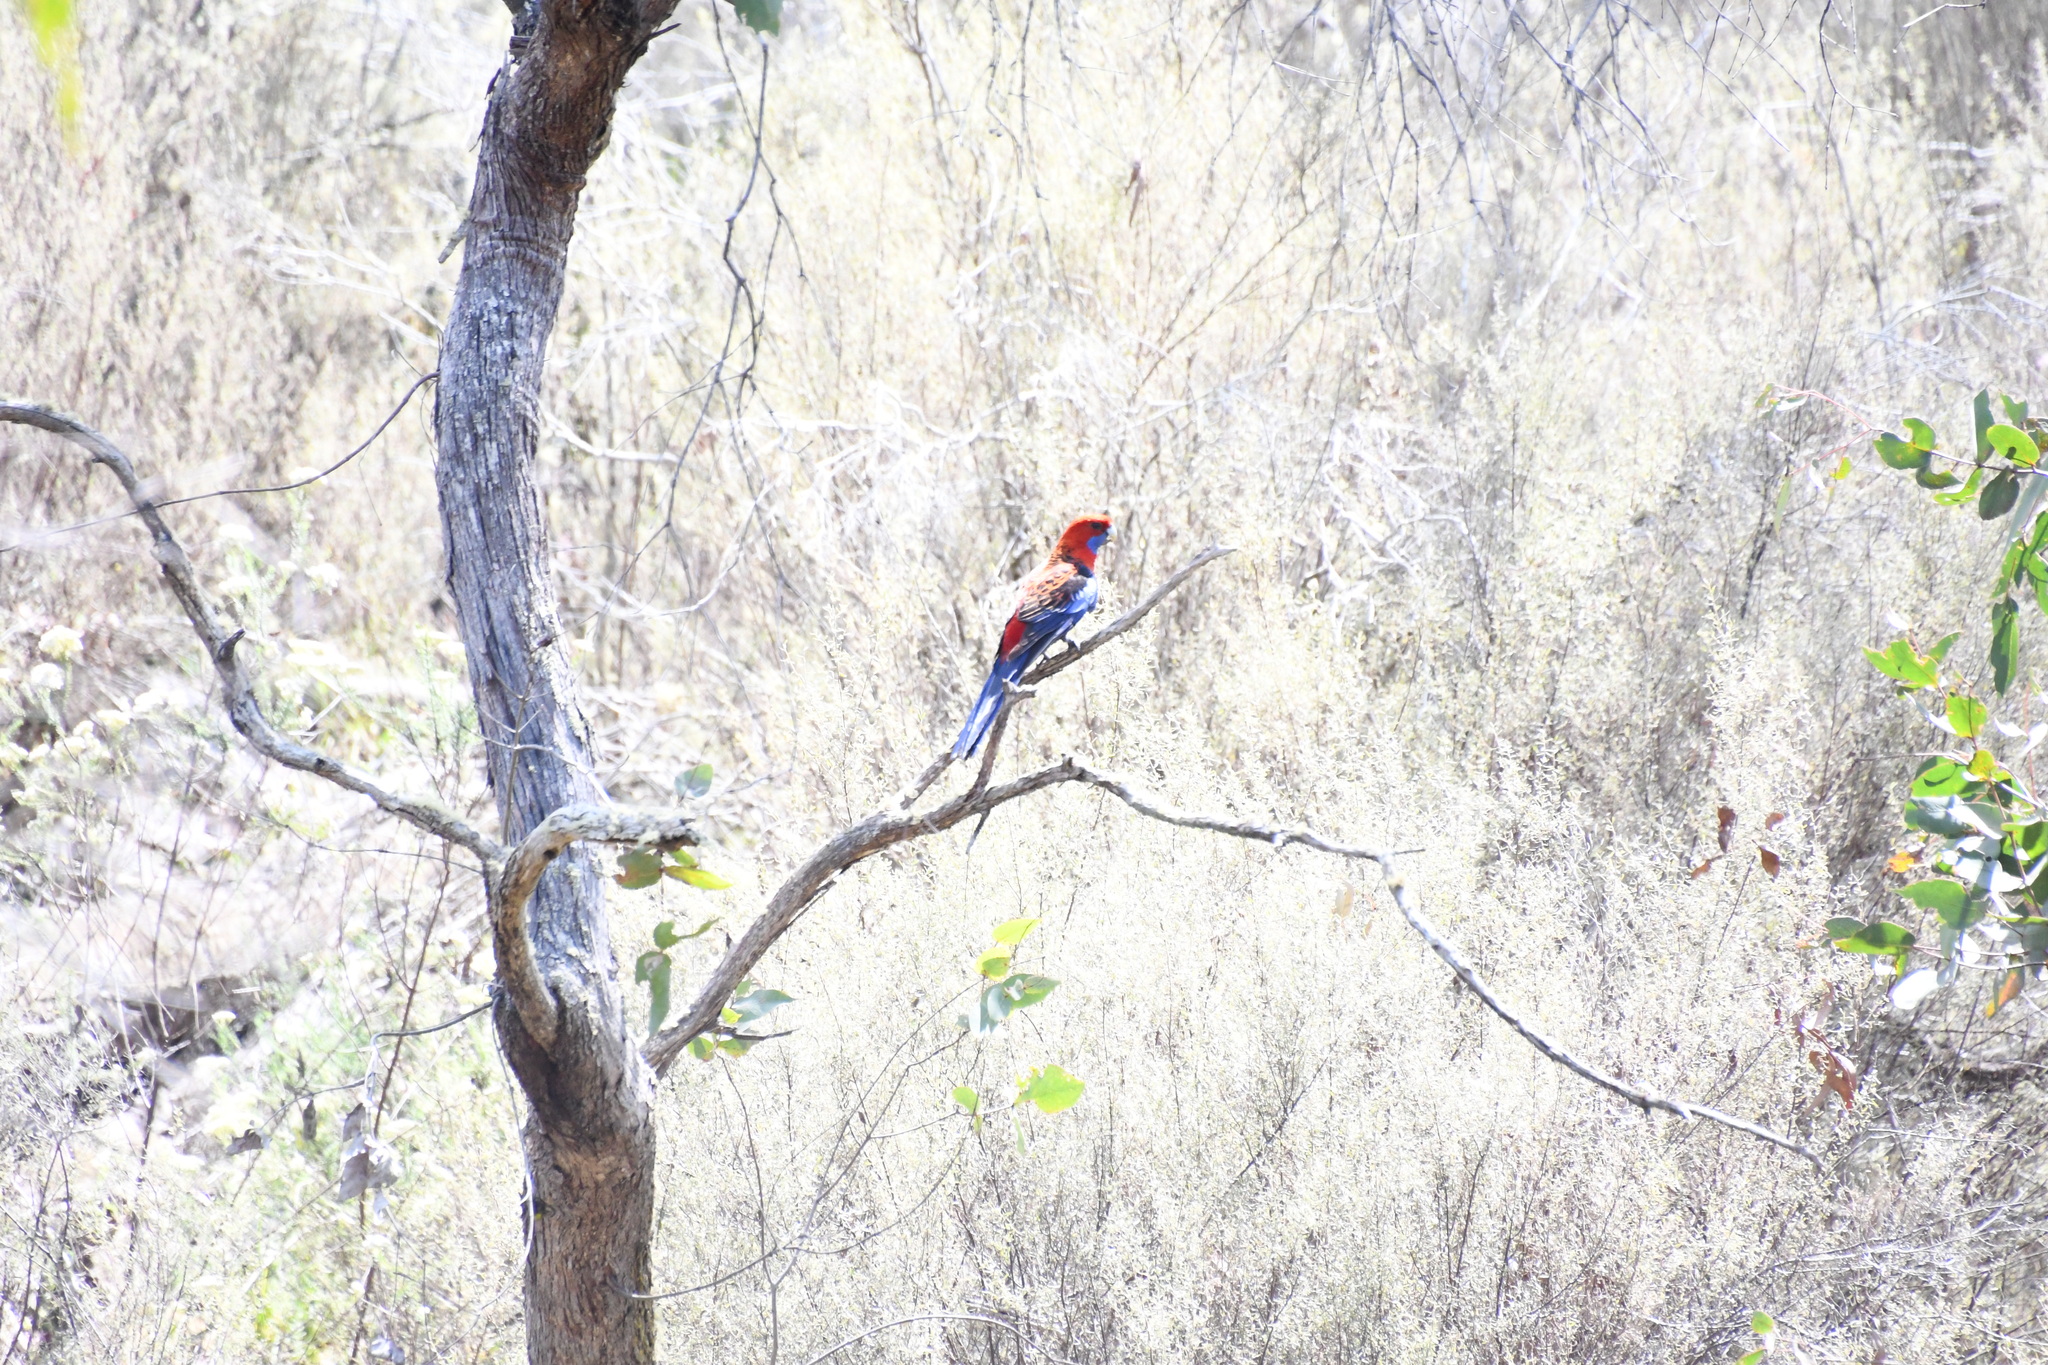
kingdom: Animalia
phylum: Chordata
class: Aves
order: Psittaciformes
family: Psittacidae
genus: Platycercus
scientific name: Platycercus elegans
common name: Crimson rosella
